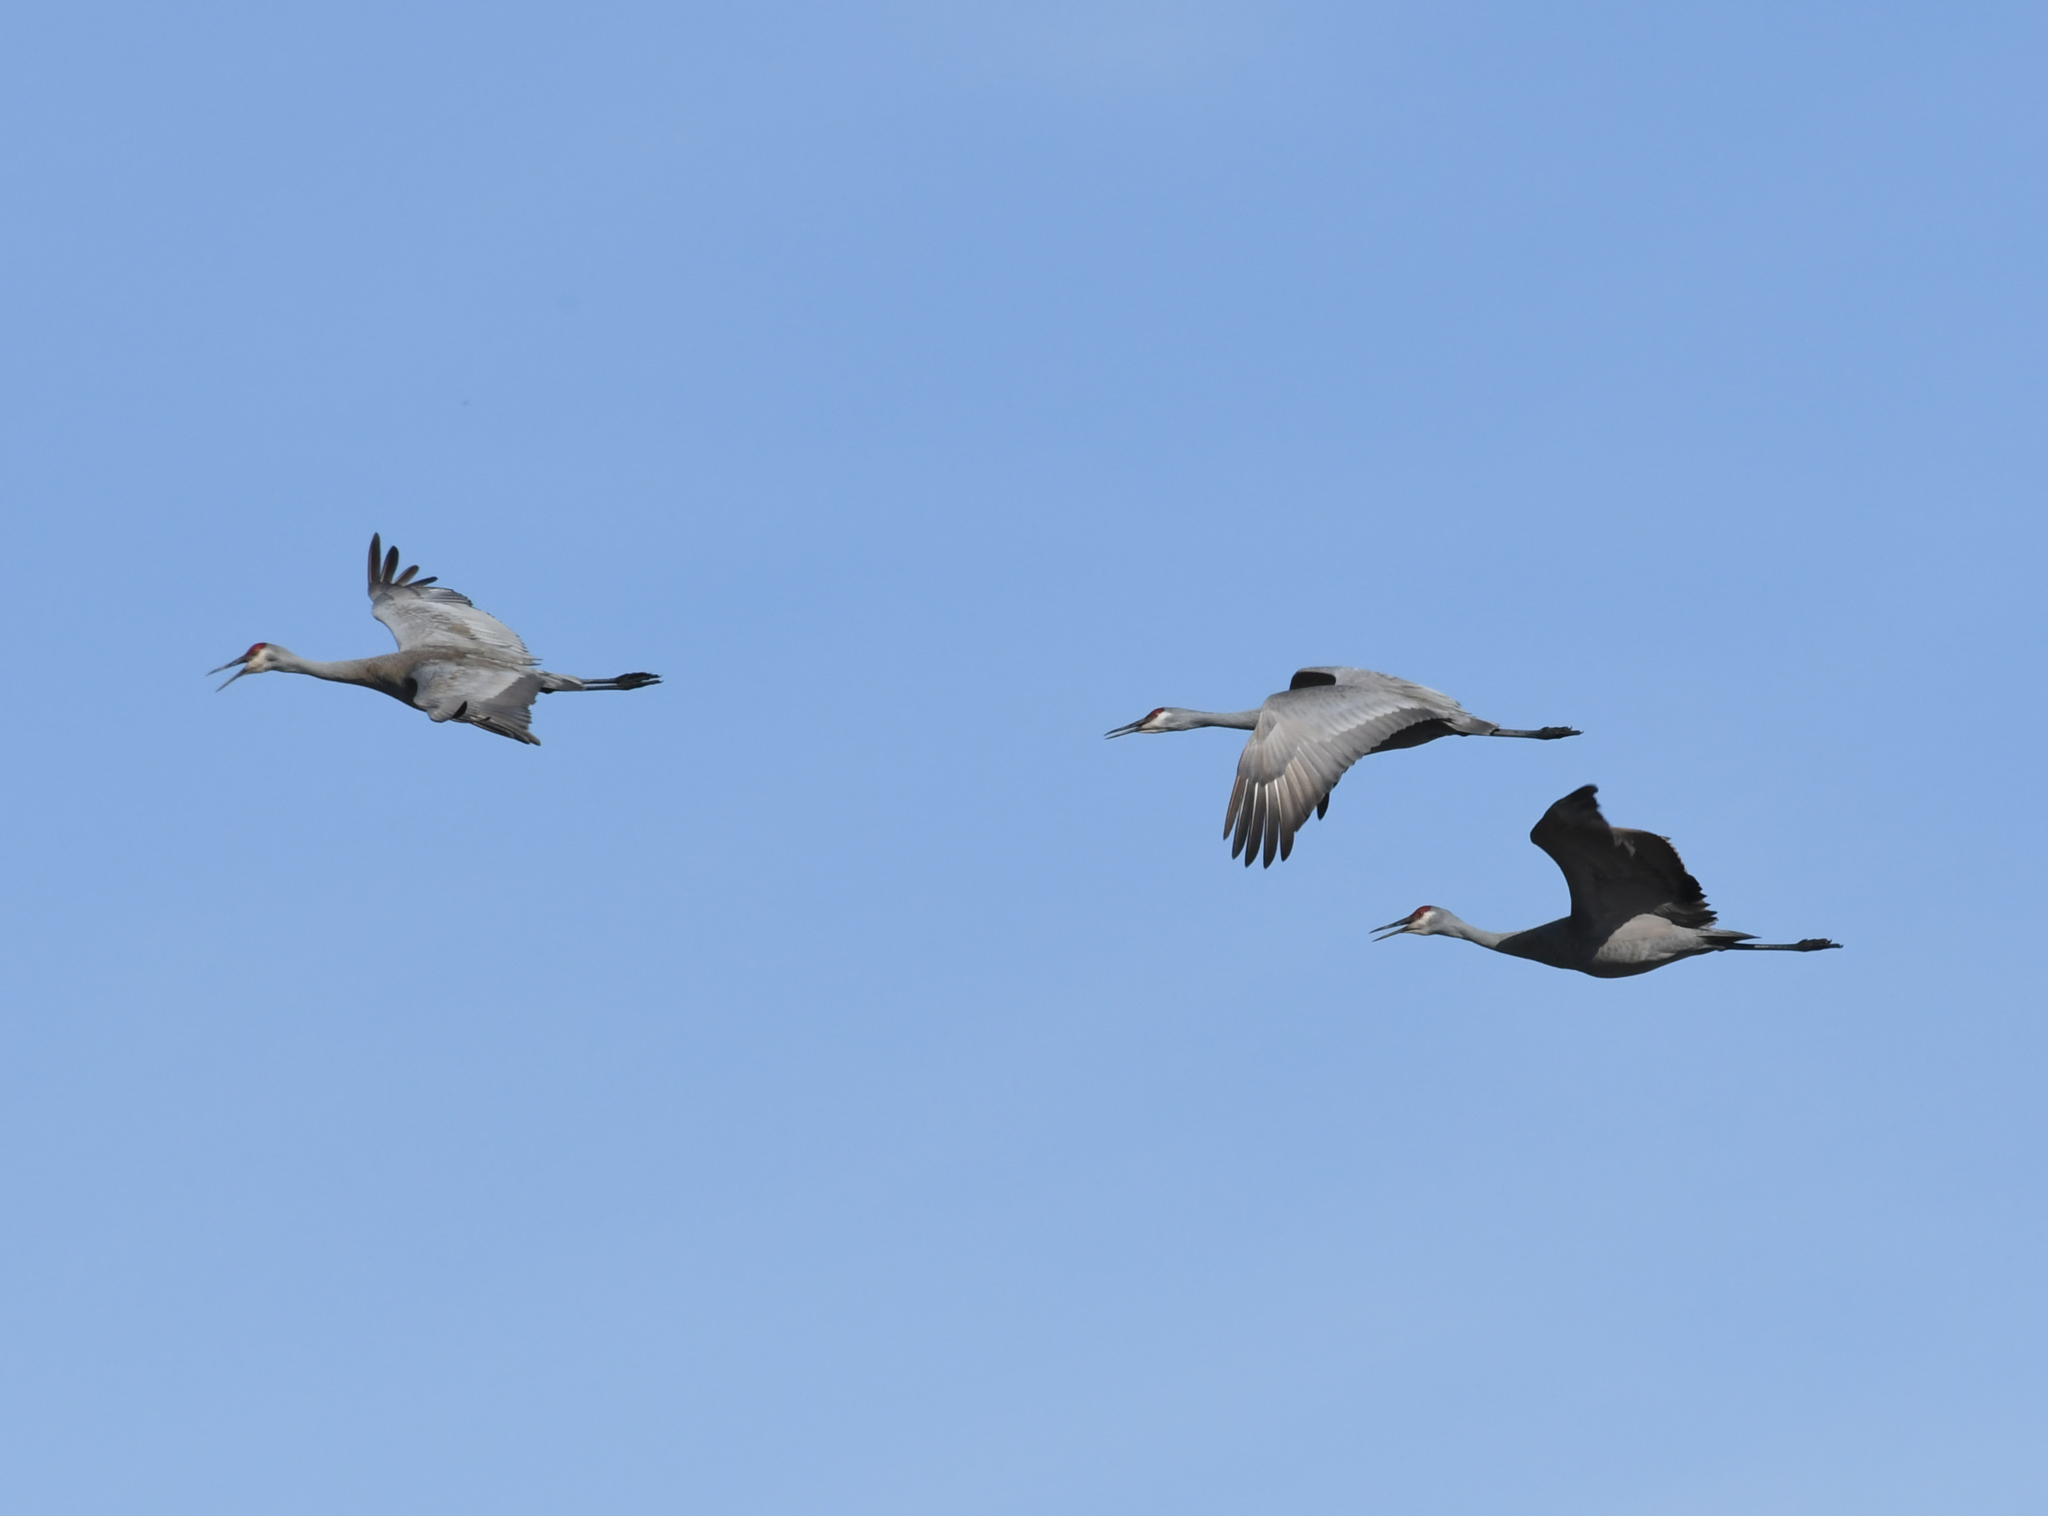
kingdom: Animalia
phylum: Chordata
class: Aves
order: Gruiformes
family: Gruidae
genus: Grus
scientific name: Grus canadensis
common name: Sandhill crane
